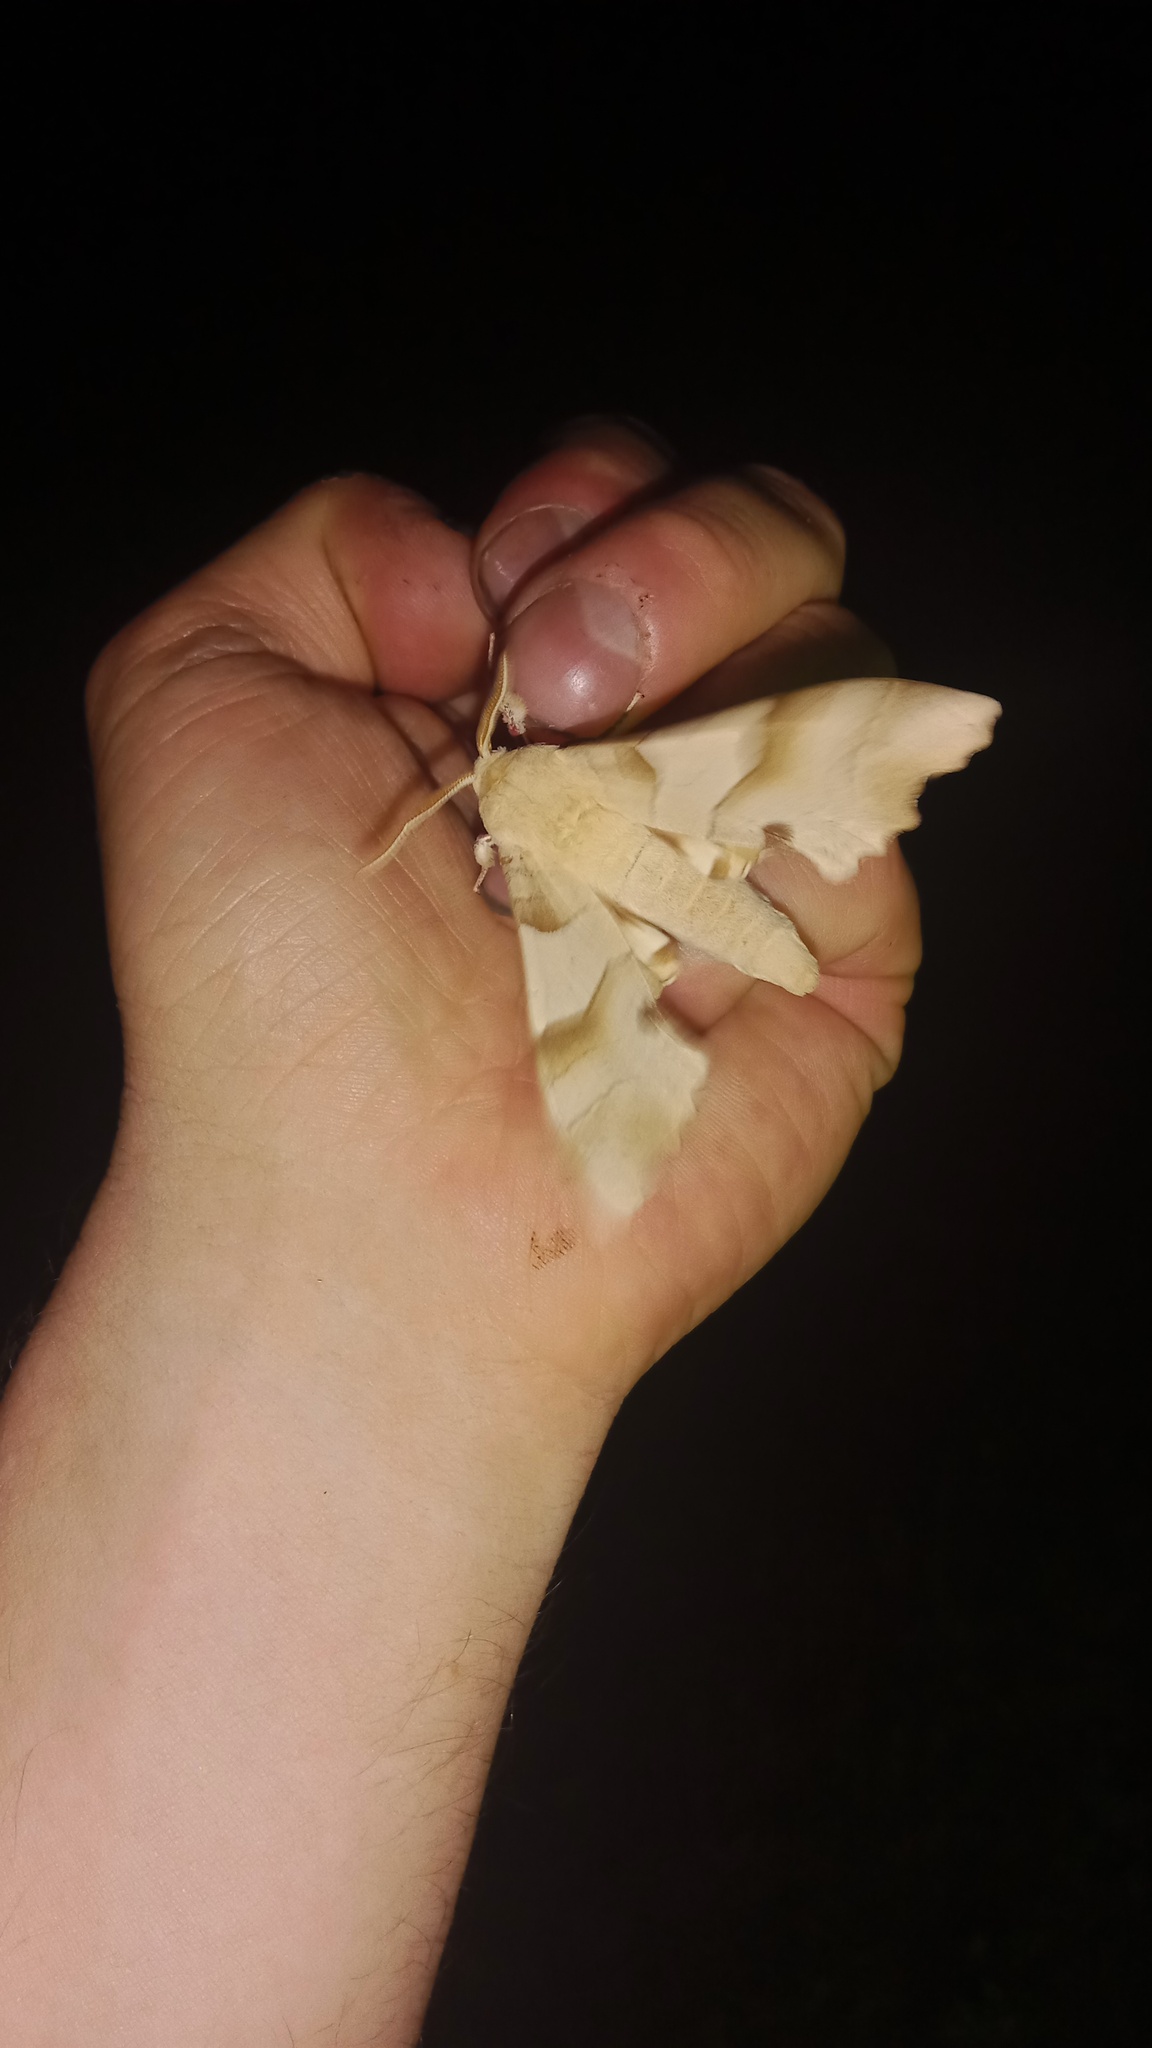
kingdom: Animalia
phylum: Arthropoda
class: Insecta
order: Lepidoptera
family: Sphingidae
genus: Marumba
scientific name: Marumba quercus
